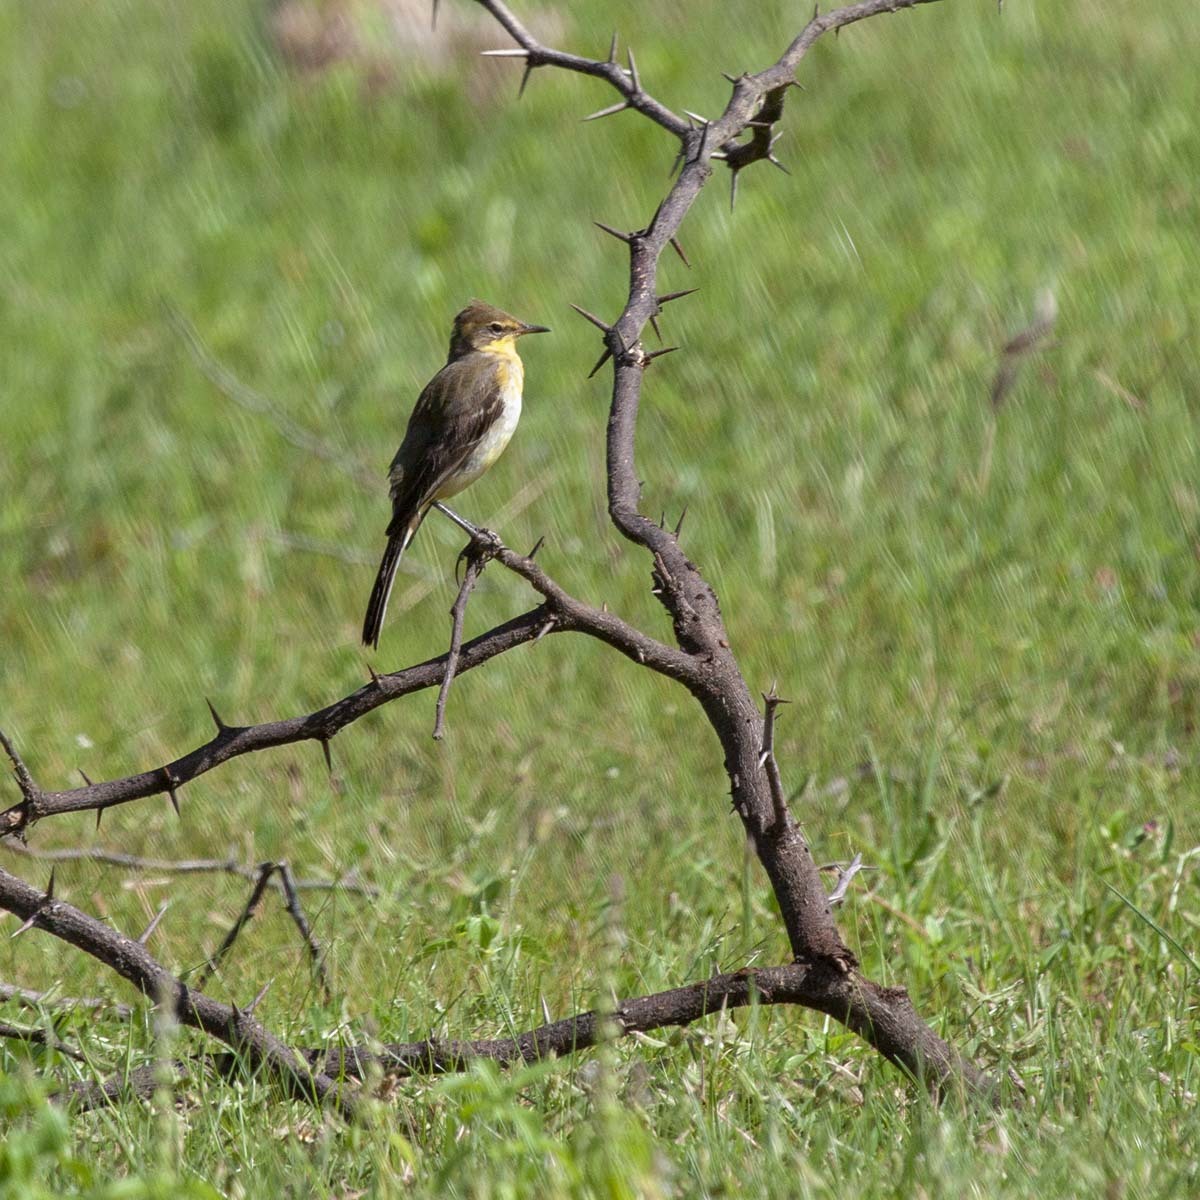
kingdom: Animalia
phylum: Chordata
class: Aves
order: Passeriformes
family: Motacillidae
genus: Motacilla
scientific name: Motacilla flava
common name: Western yellow wagtail
